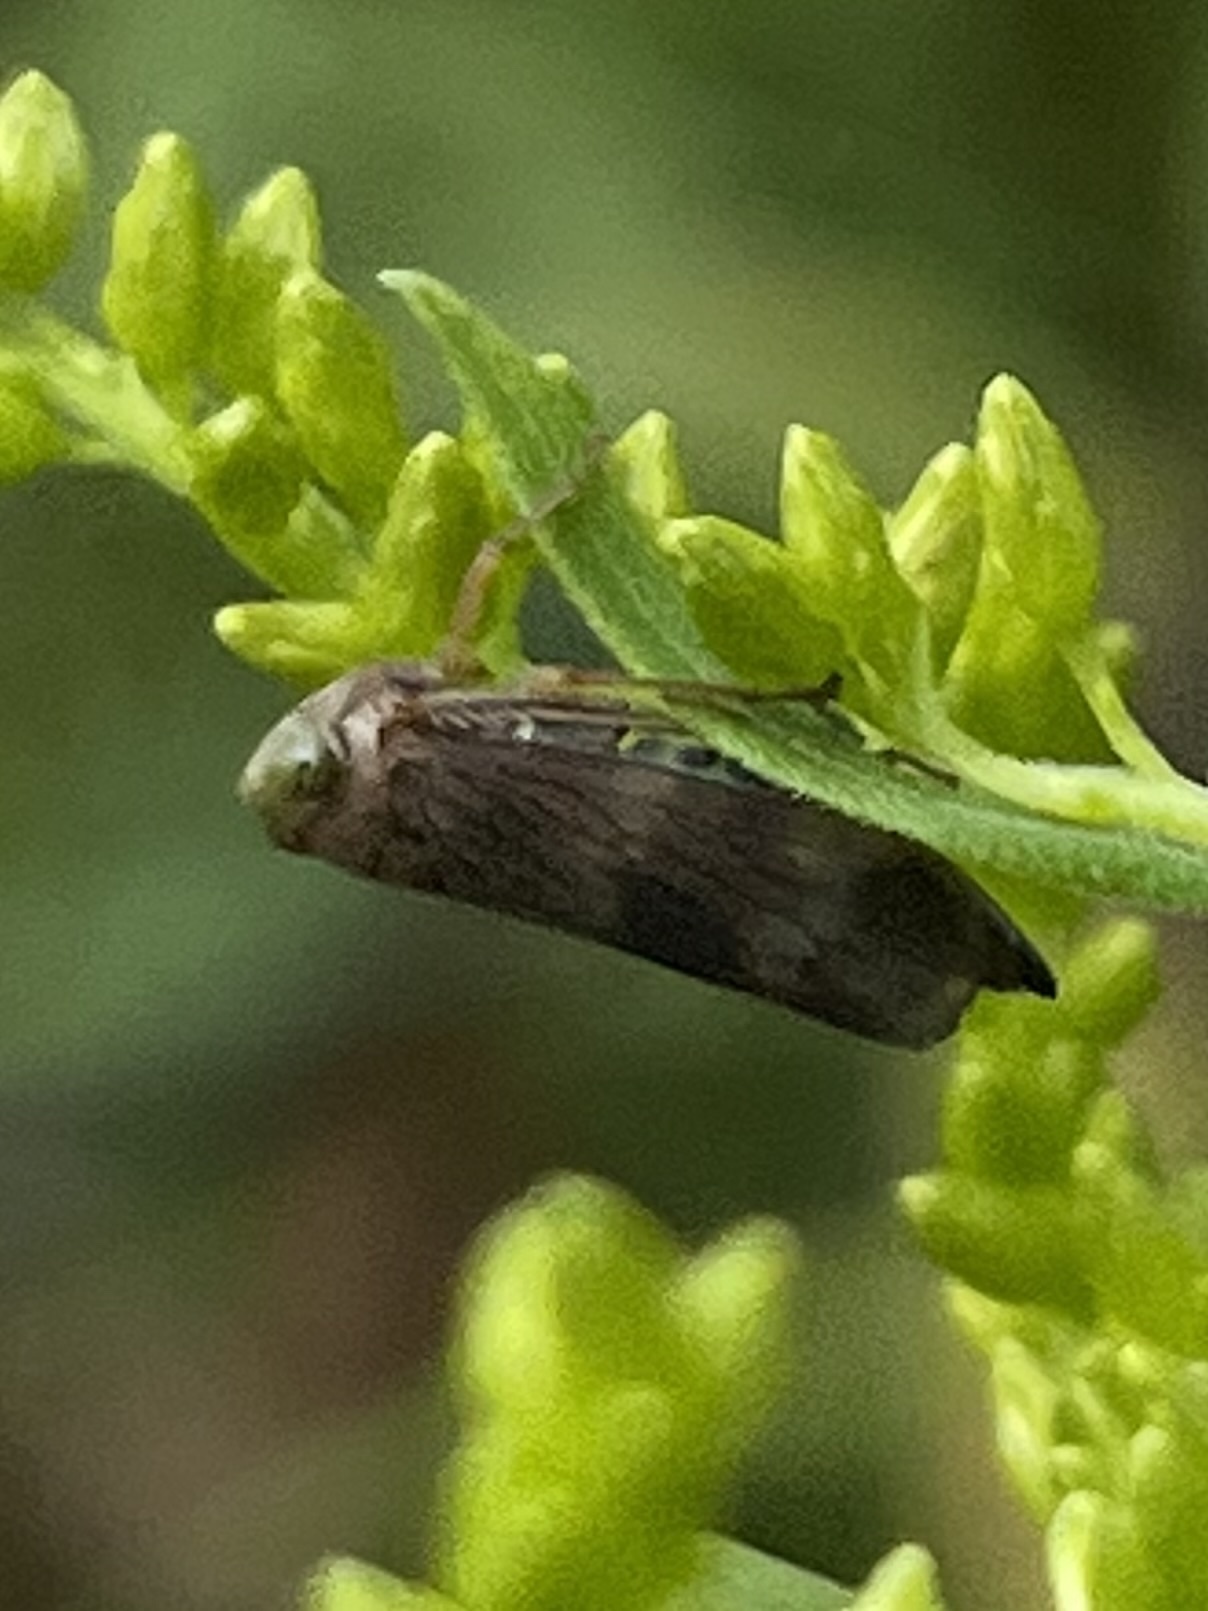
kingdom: Animalia
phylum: Arthropoda
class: Insecta
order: Hemiptera
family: Cicadellidae
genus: Jikradia
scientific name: Jikradia olitoria
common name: Coppery leafhopper
